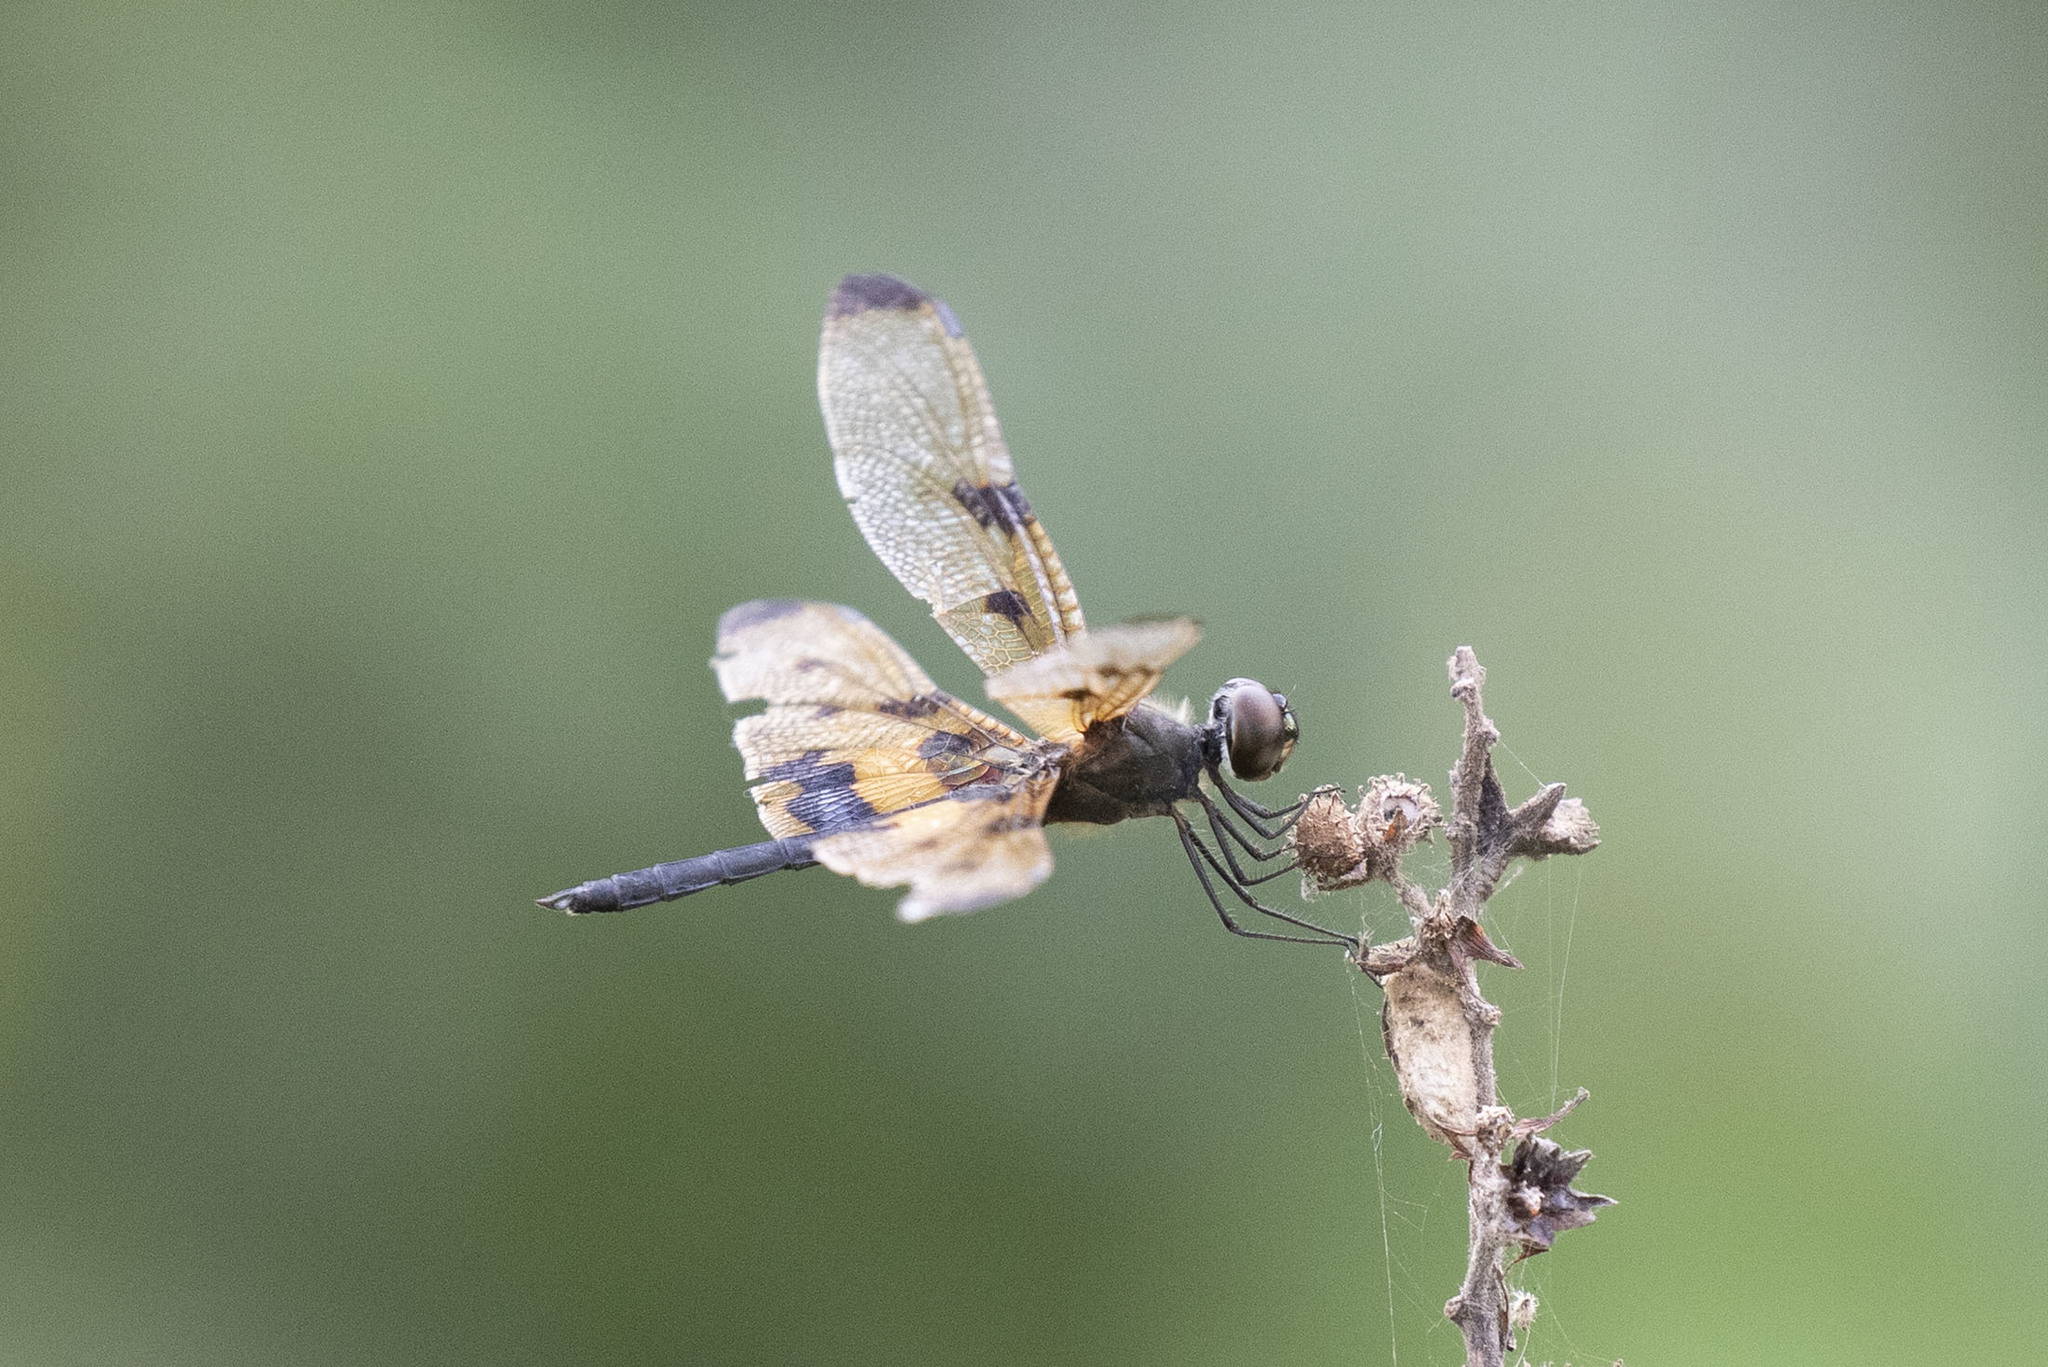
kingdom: Animalia
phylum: Arthropoda
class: Insecta
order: Odonata
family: Libellulidae
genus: Rhyothemis
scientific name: Rhyothemis variegata
